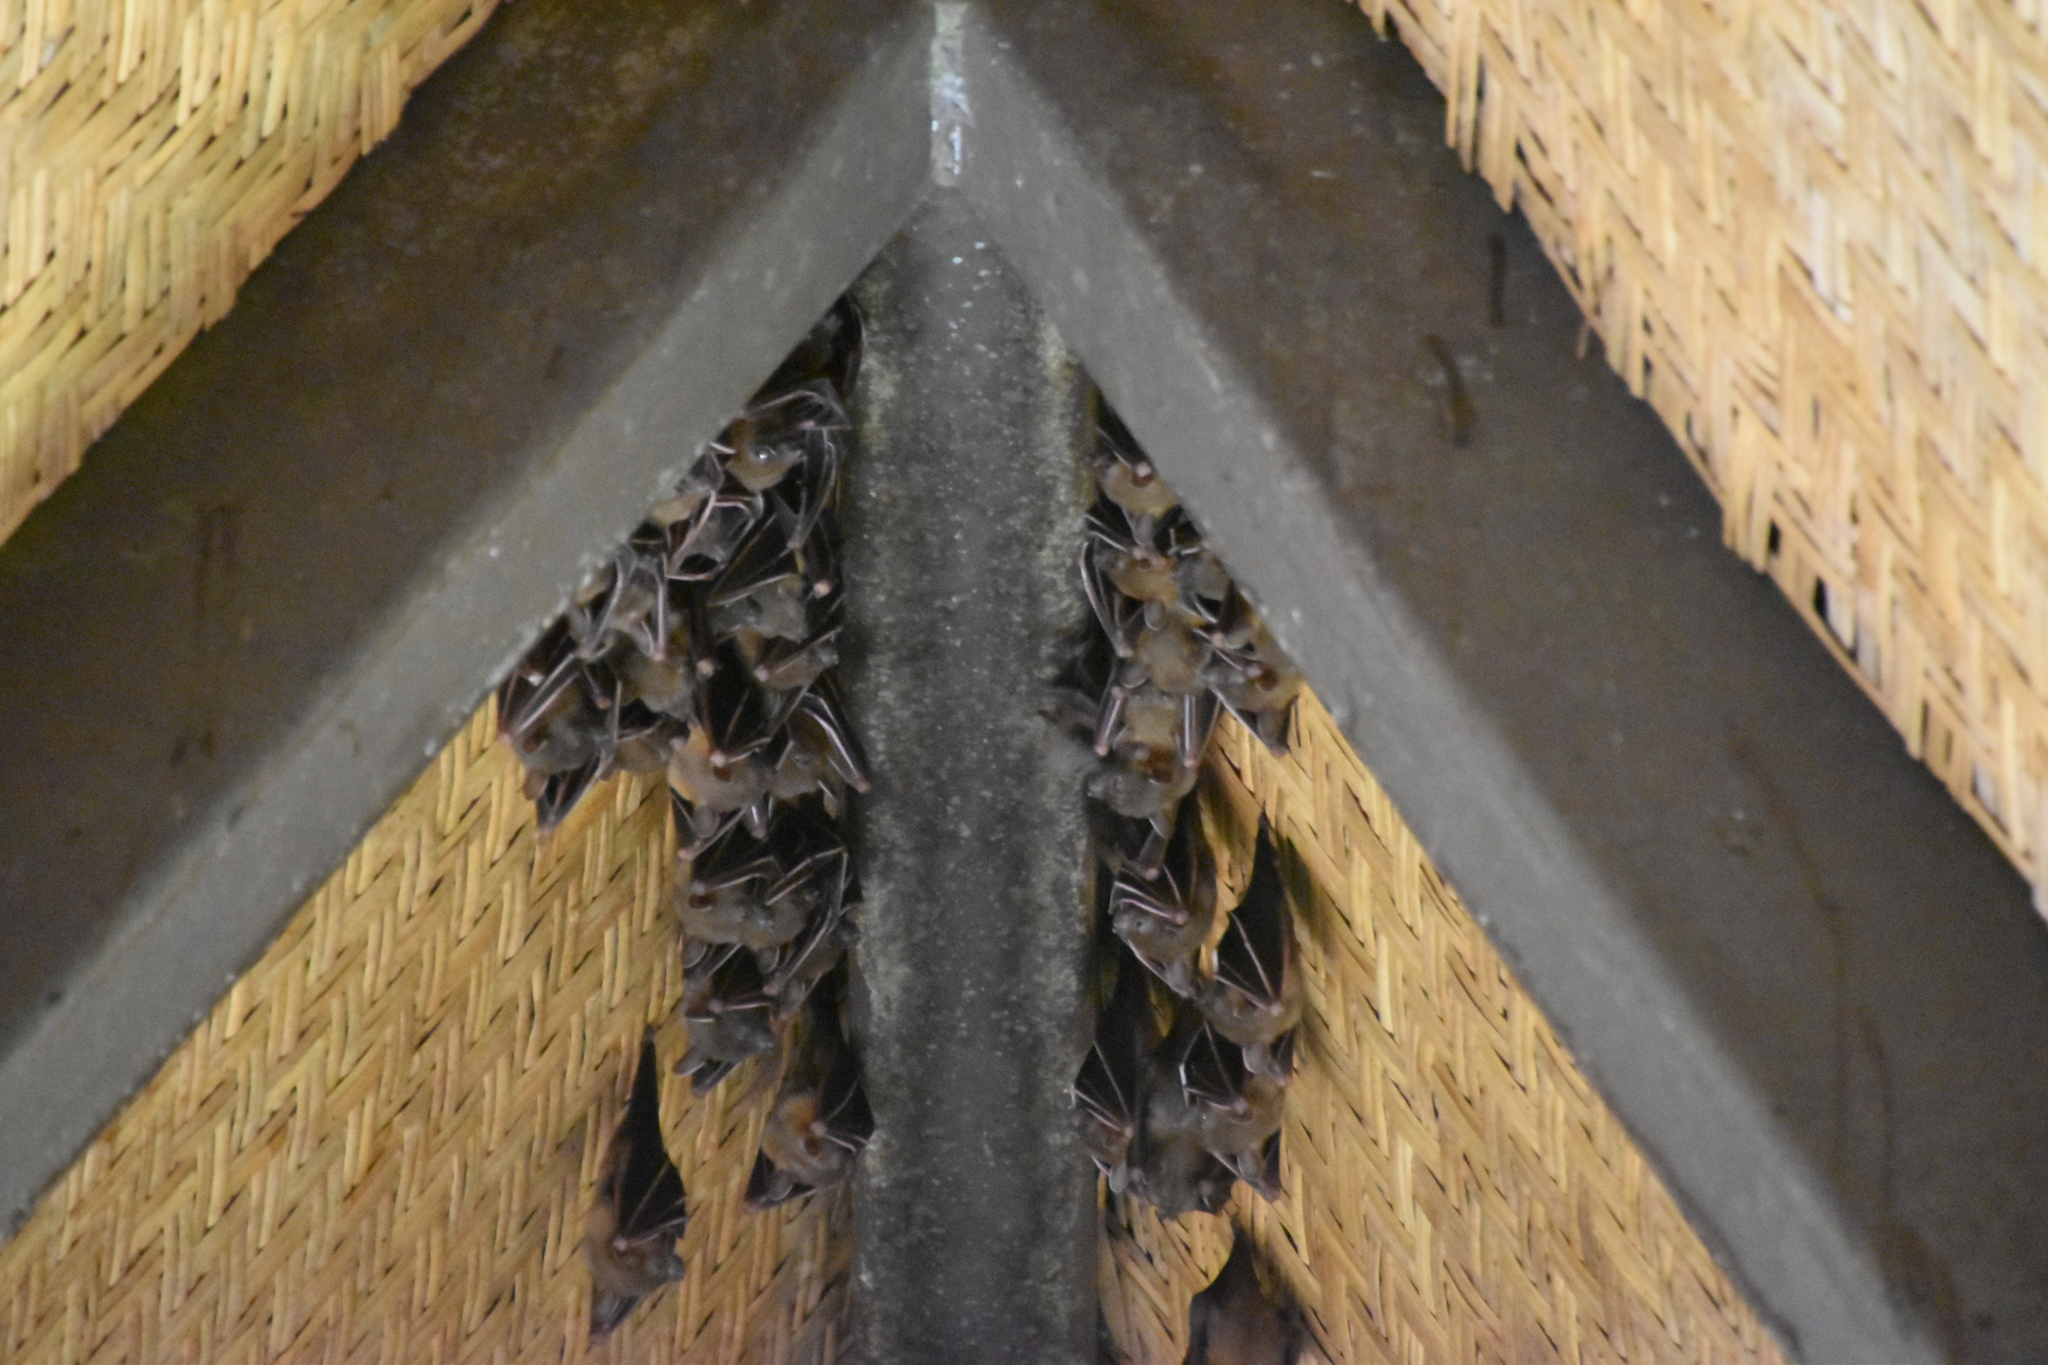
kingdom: Animalia
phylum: Chordata
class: Mammalia
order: Chiroptera
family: Pteropodidae
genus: Cynopterus
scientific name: Cynopterus brachyotis
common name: Lesser short-nosed fruit bat
